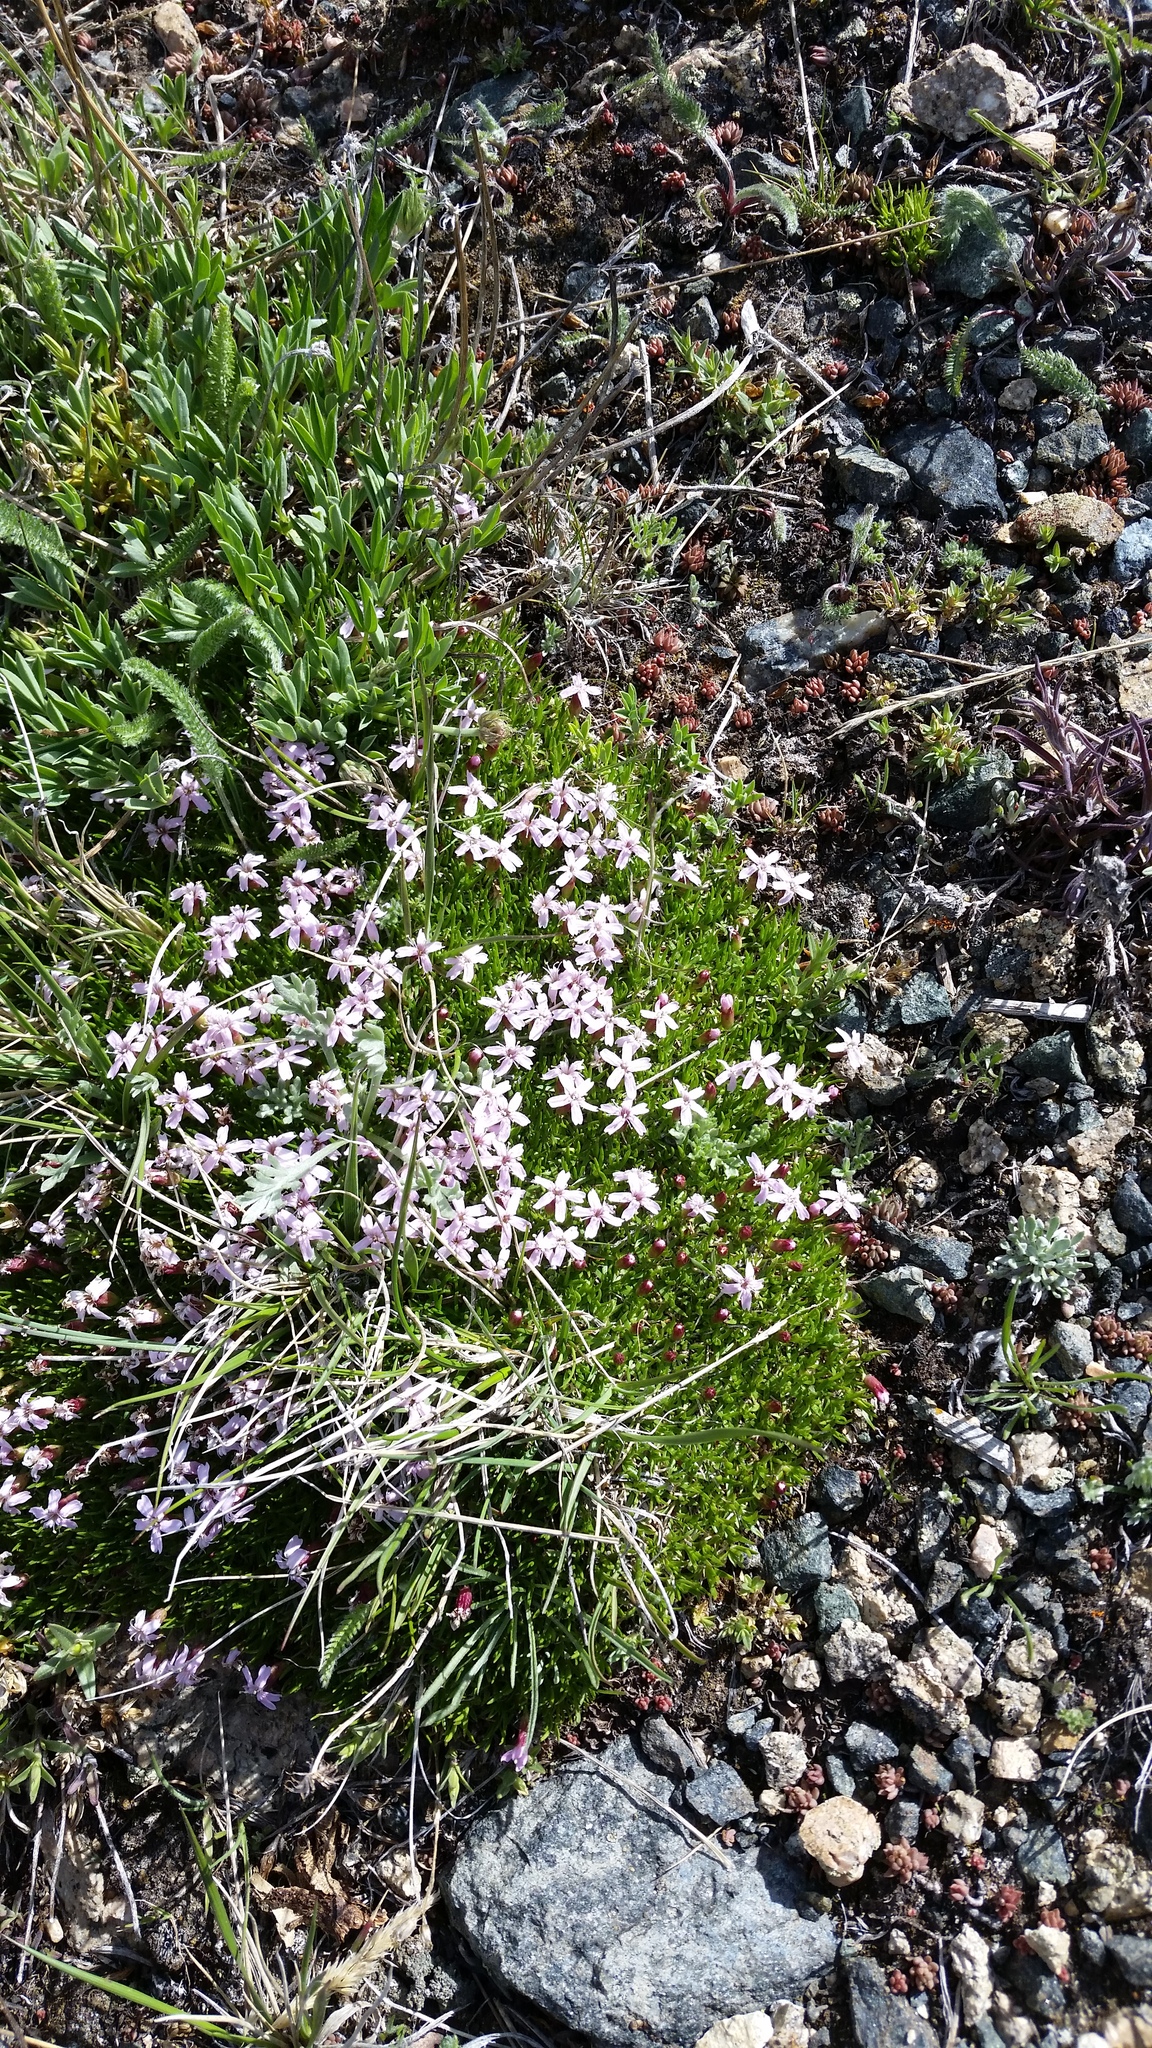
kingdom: Plantae
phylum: Tracheophyta
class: Magnoliopsida
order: Caryophyllales
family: Caryophyllaceae
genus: Silene
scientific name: Silene acaulis
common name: Moss campion
